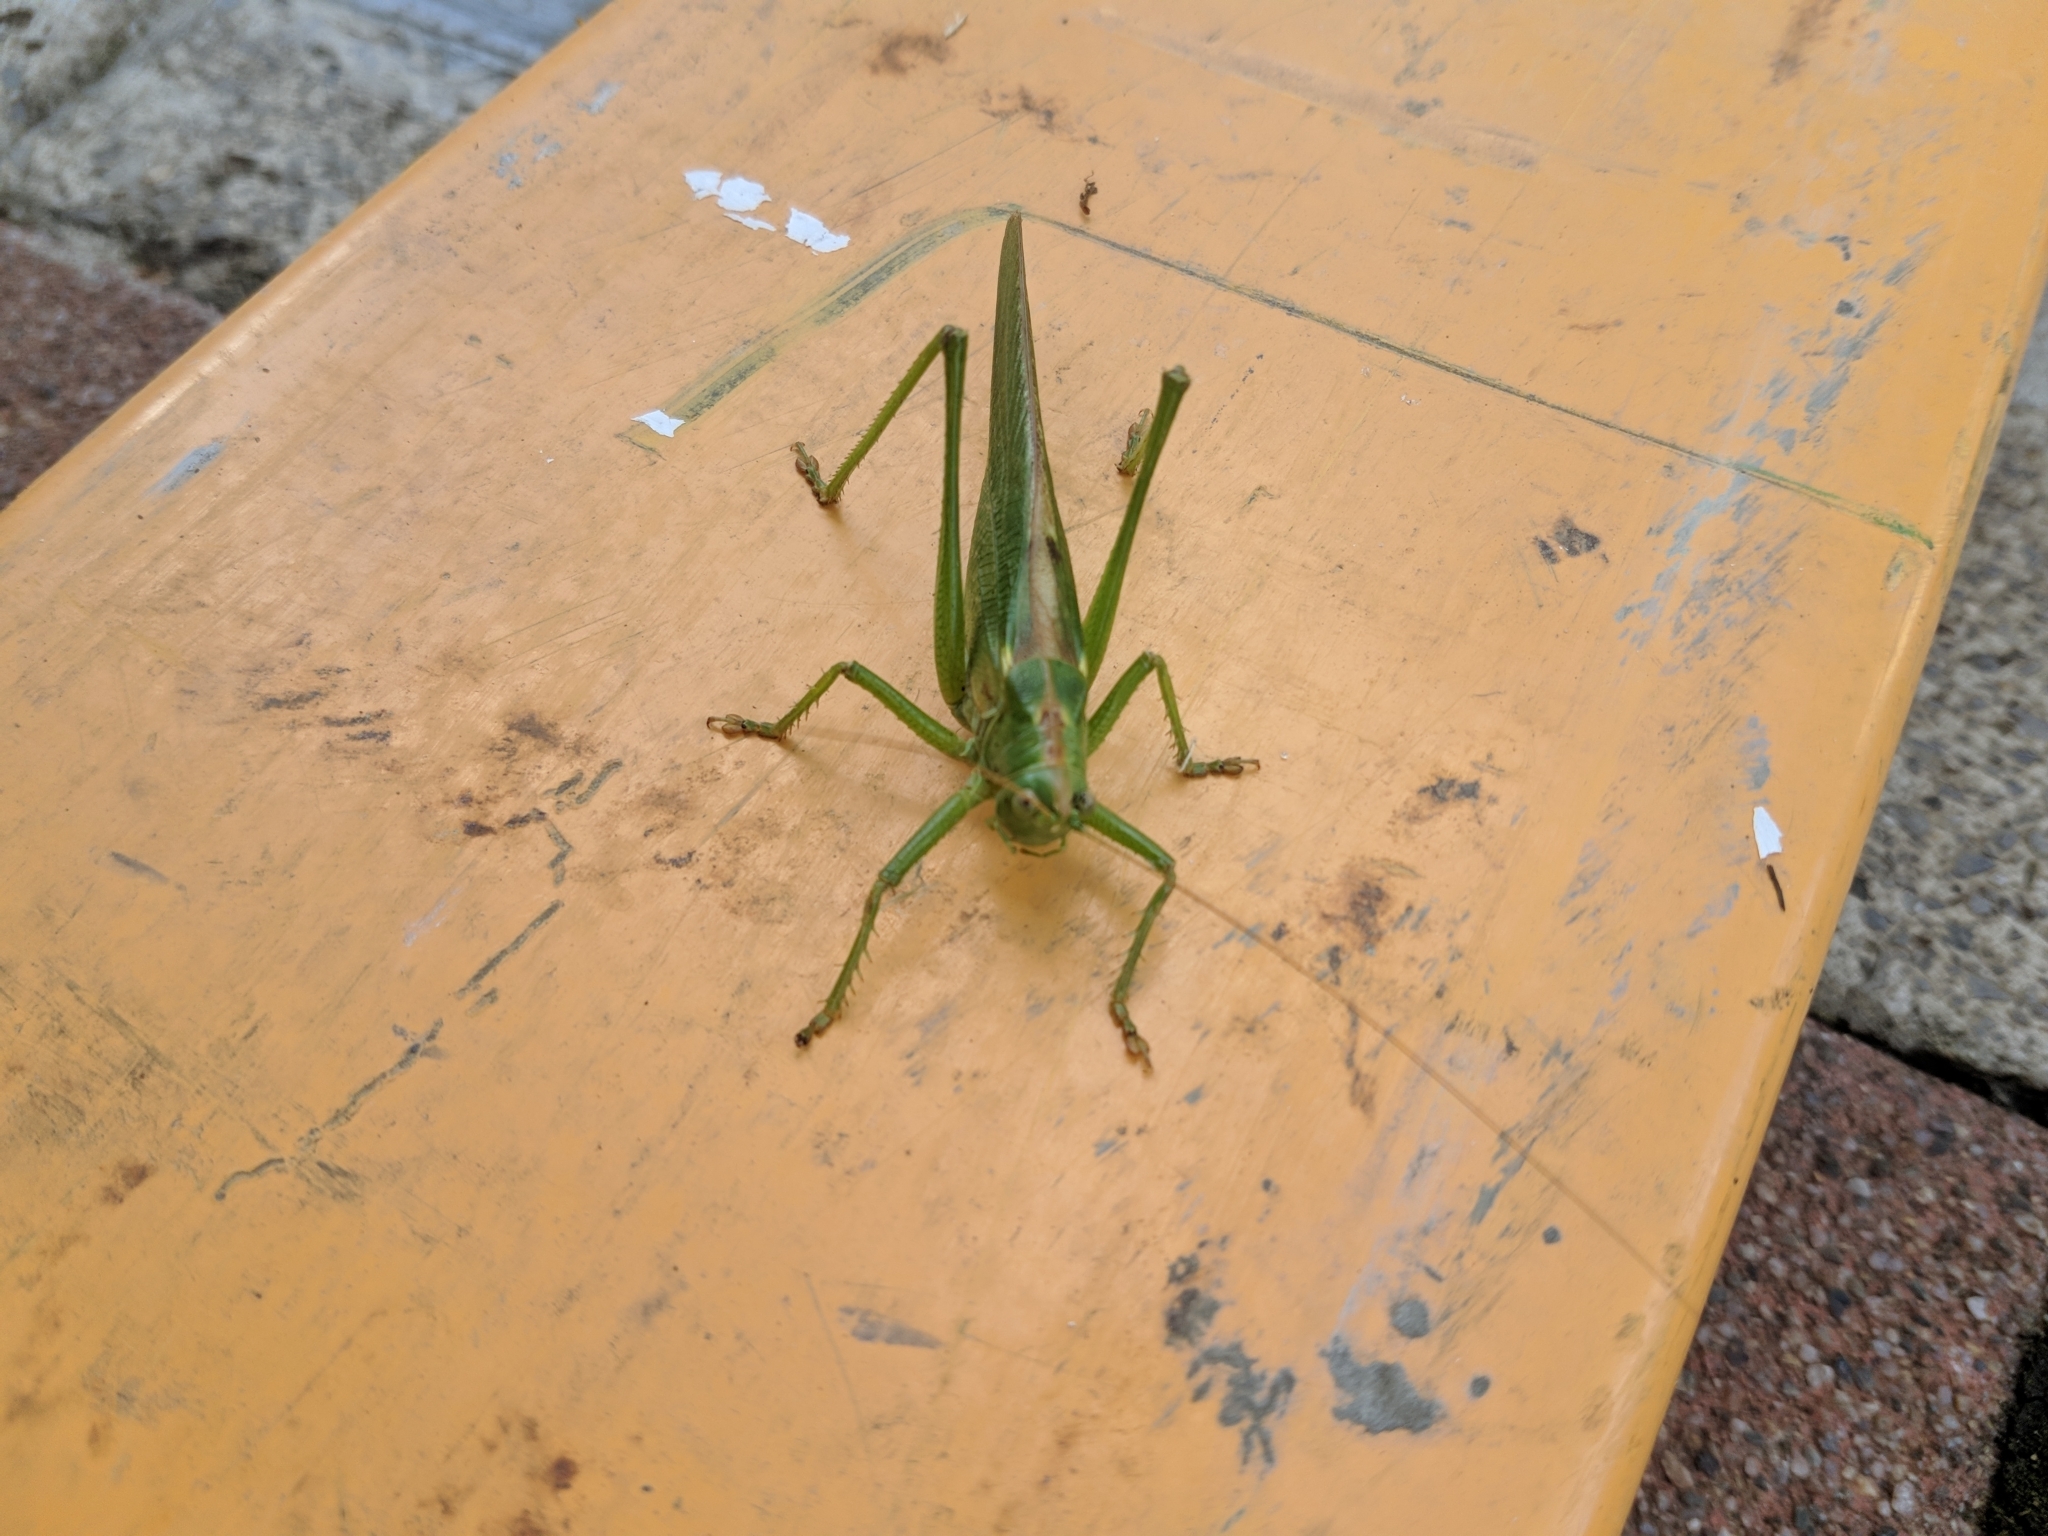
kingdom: Animalia
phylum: Arthropoda
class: Insecta
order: Orthoptera
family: Tettigoniidae
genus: Tettigonia
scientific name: Tettigonia viridissima
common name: Great green bush-cricket
